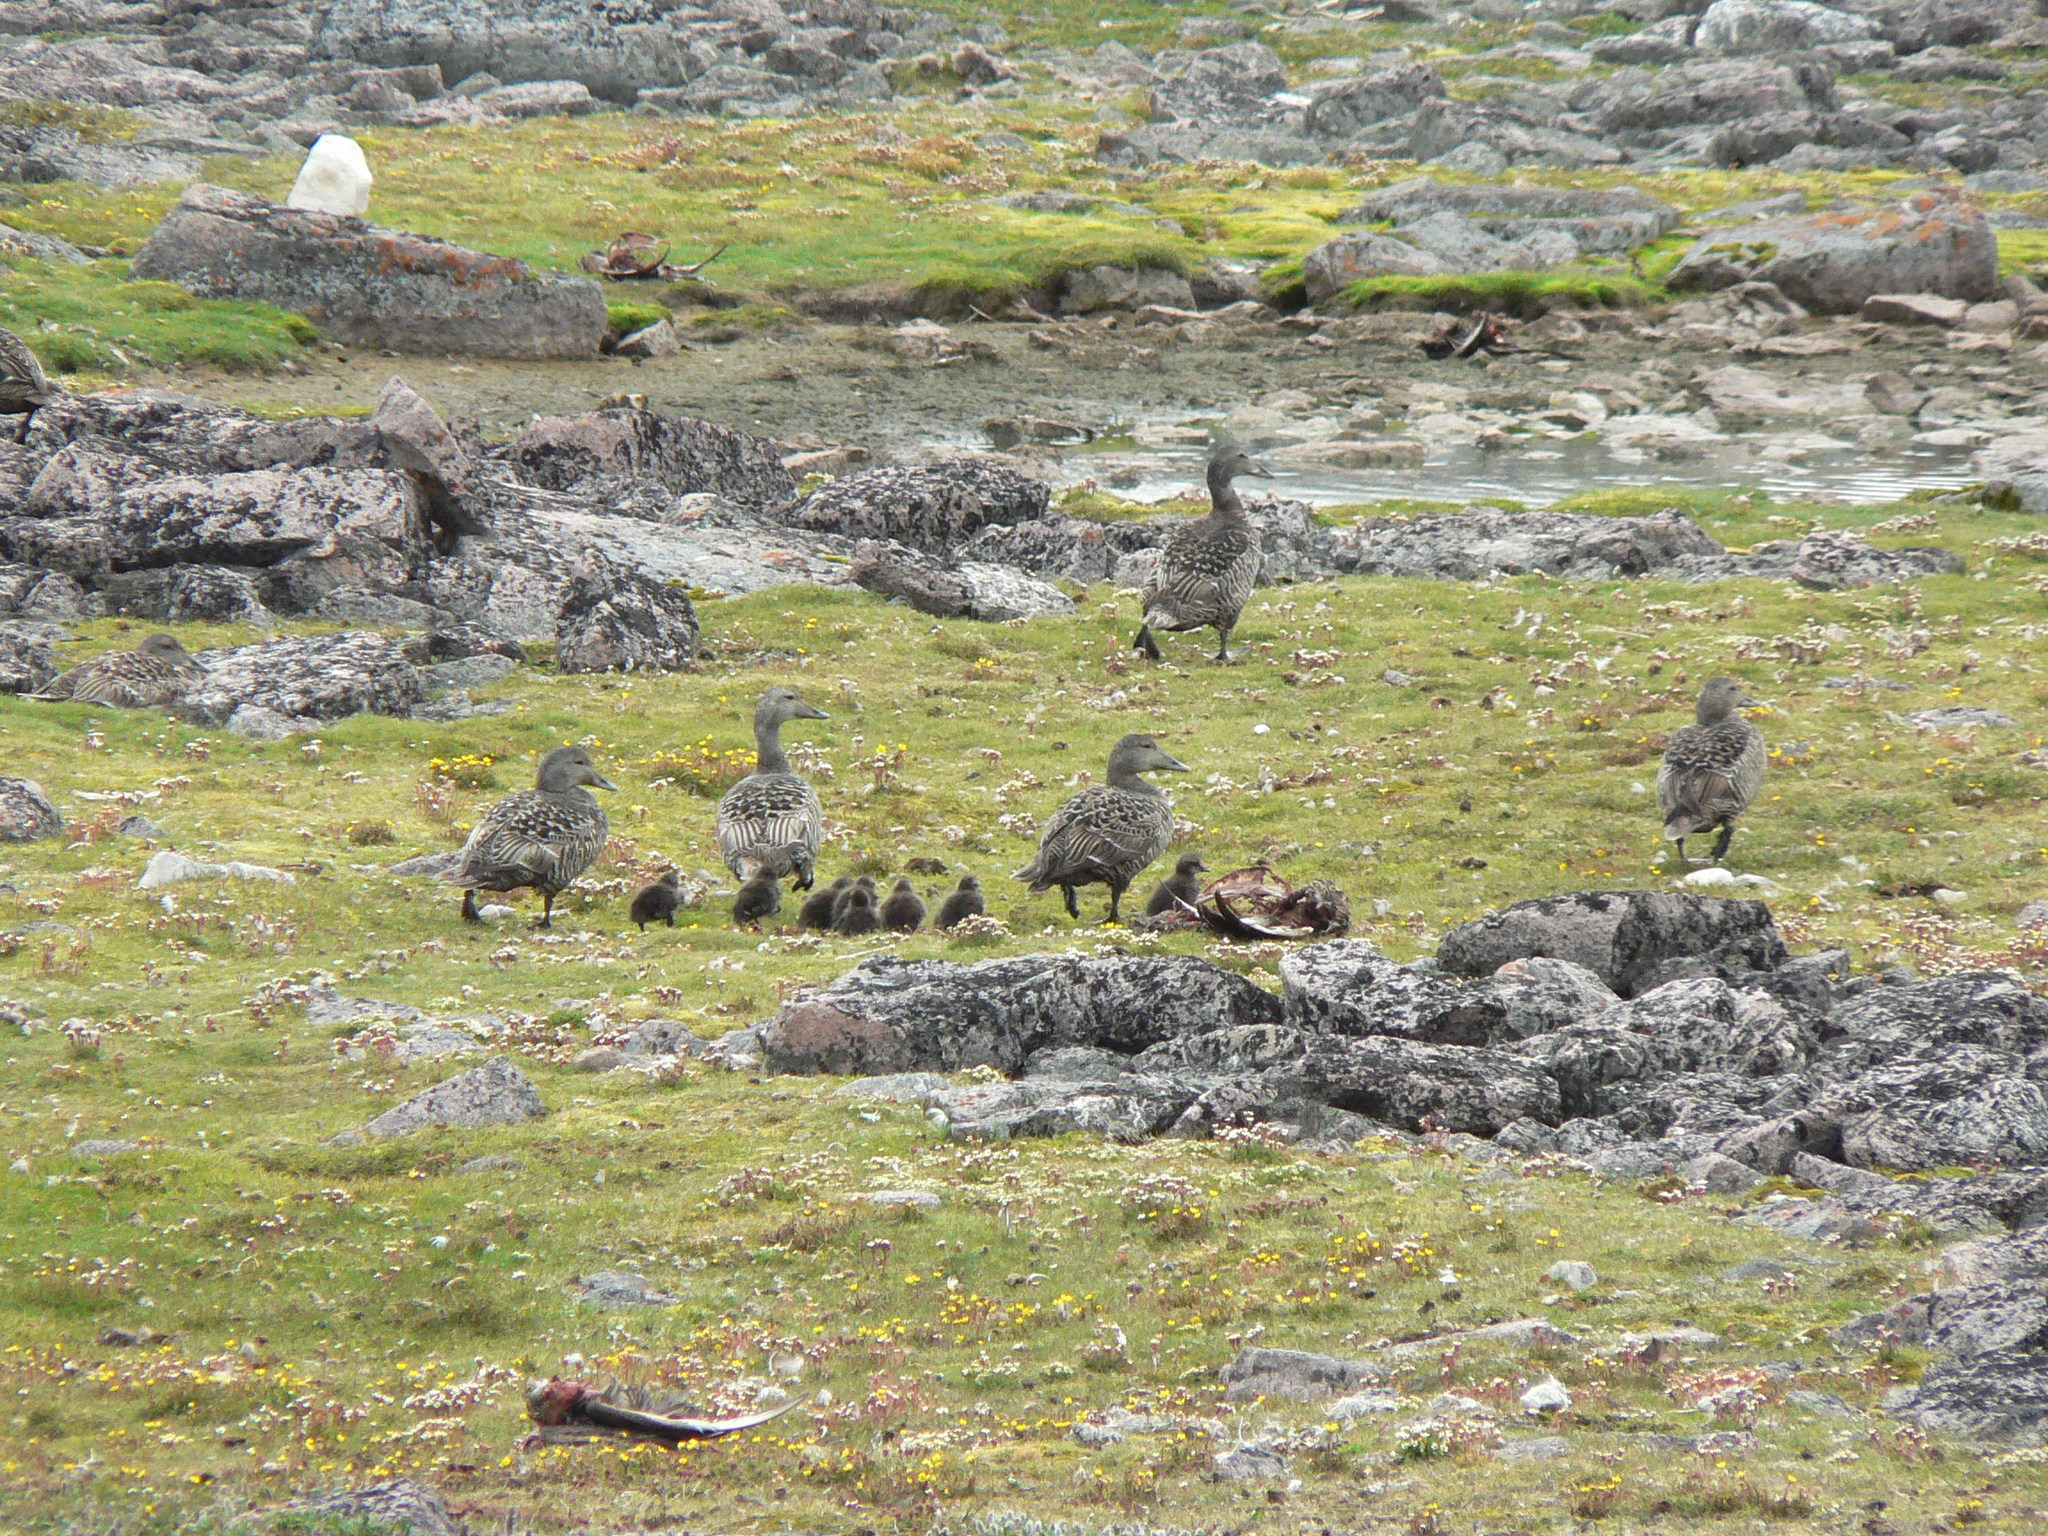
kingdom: Animalia
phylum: Chordata
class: Aves
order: Anseriformes
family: Anatidae
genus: Somateria
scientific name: Somateria mollissima
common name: Common eider
